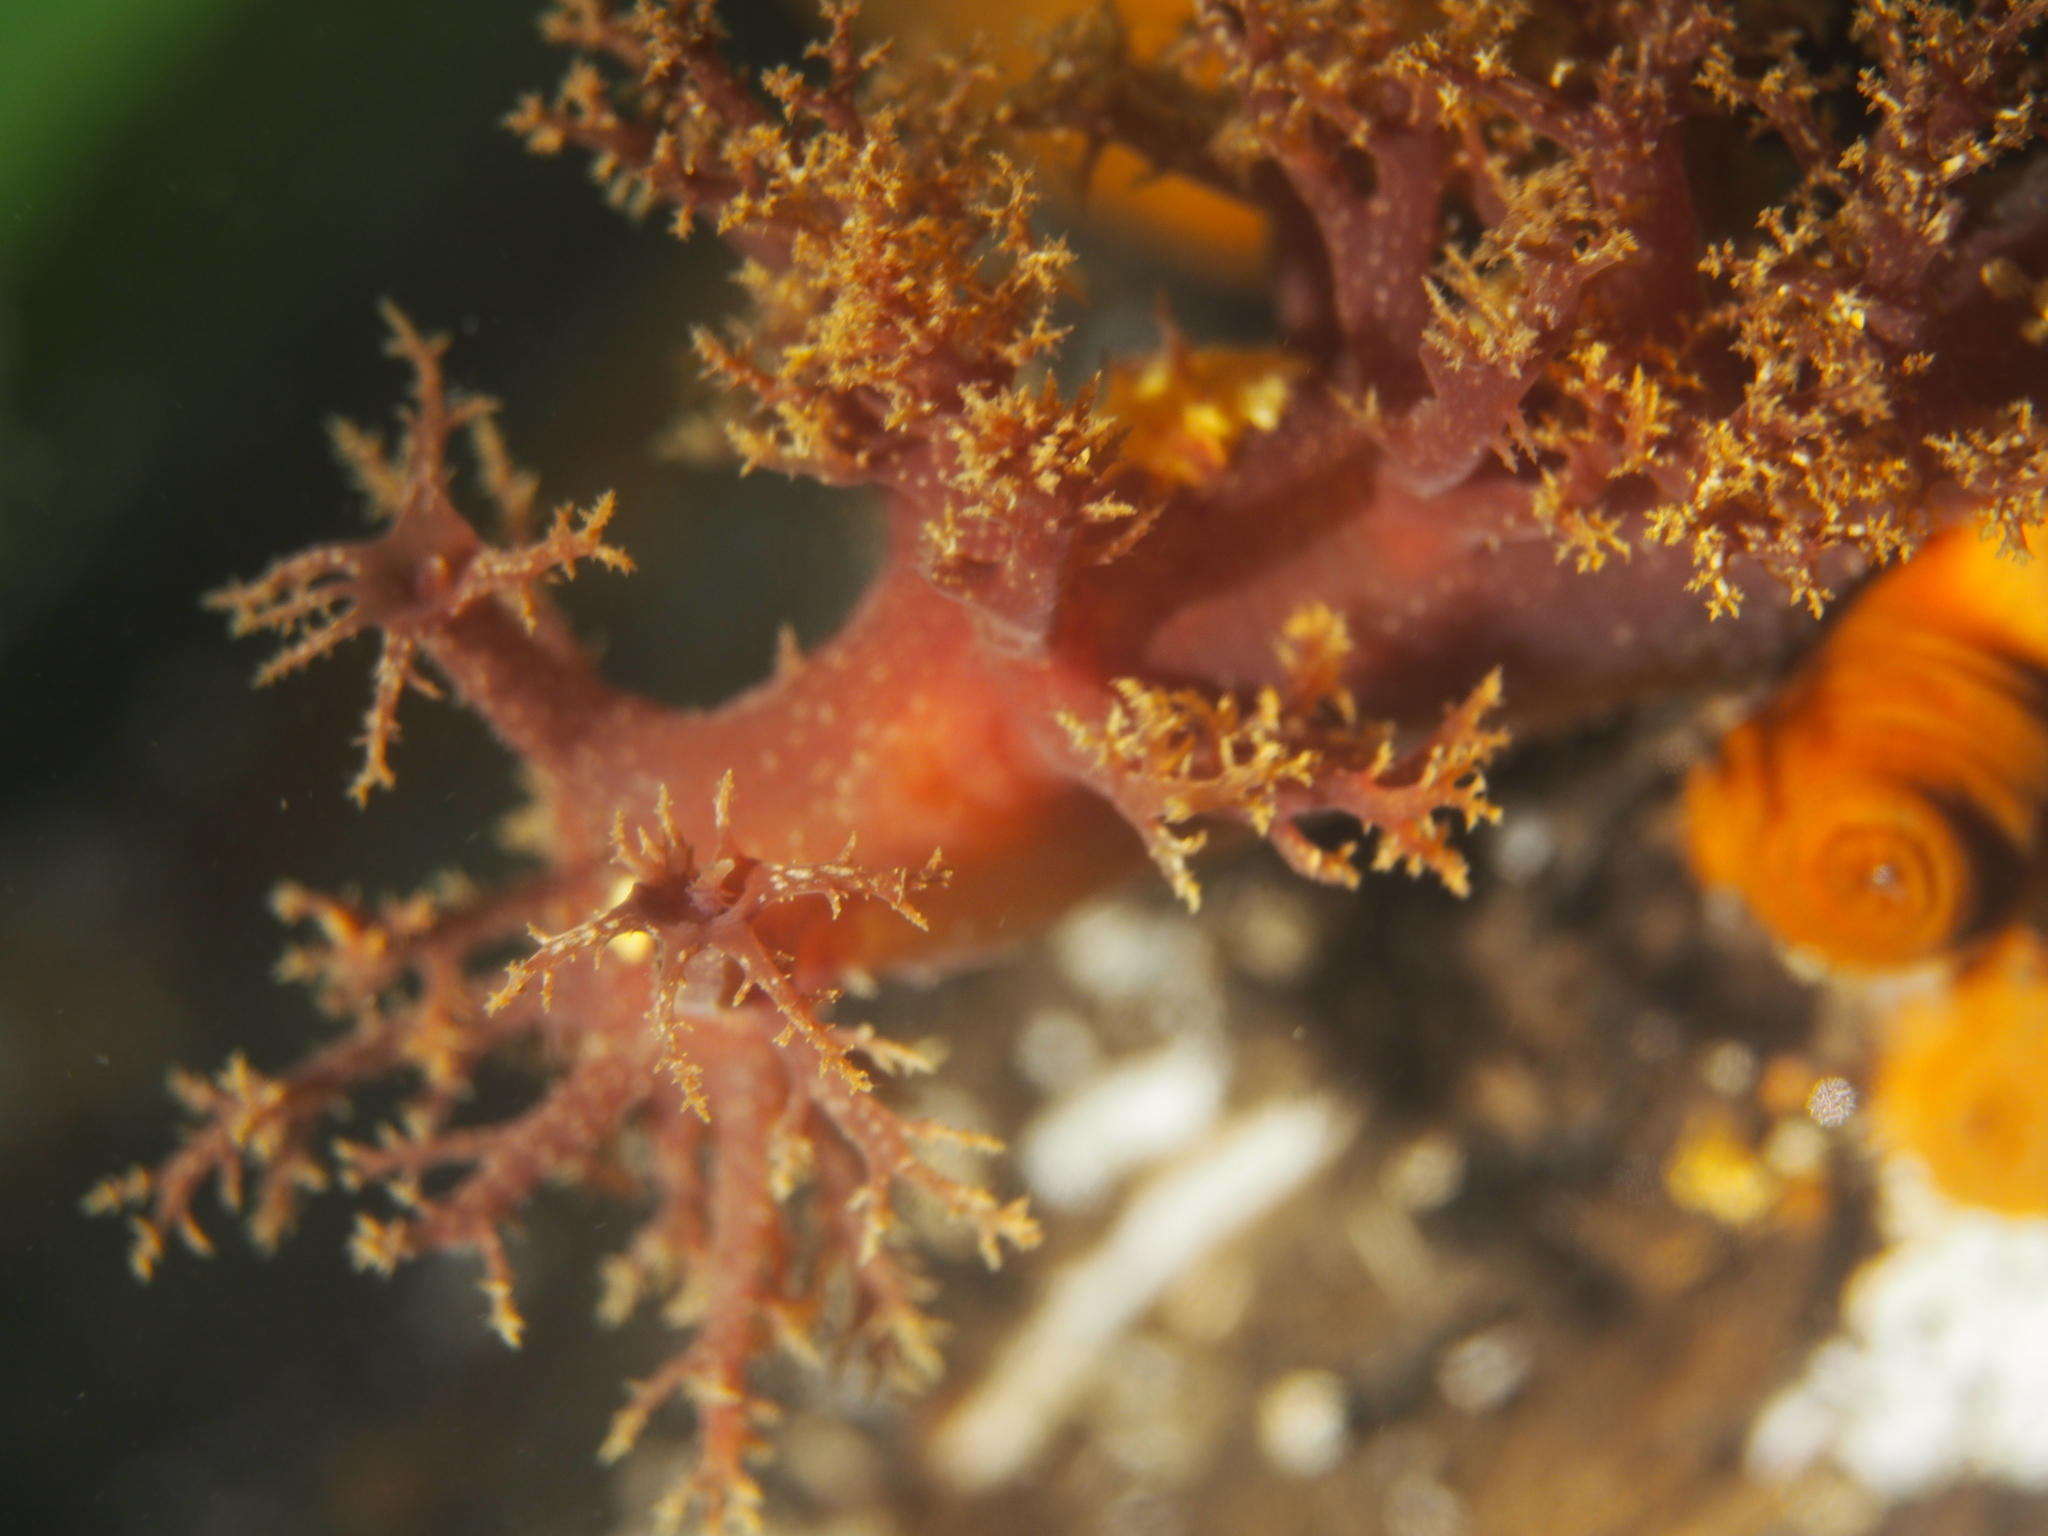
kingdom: Animalia
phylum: Mollusca
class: Gastropoda
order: Nudibranchia
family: Dendronotidae
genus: Dendronotus
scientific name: Dendronotus lacteus
